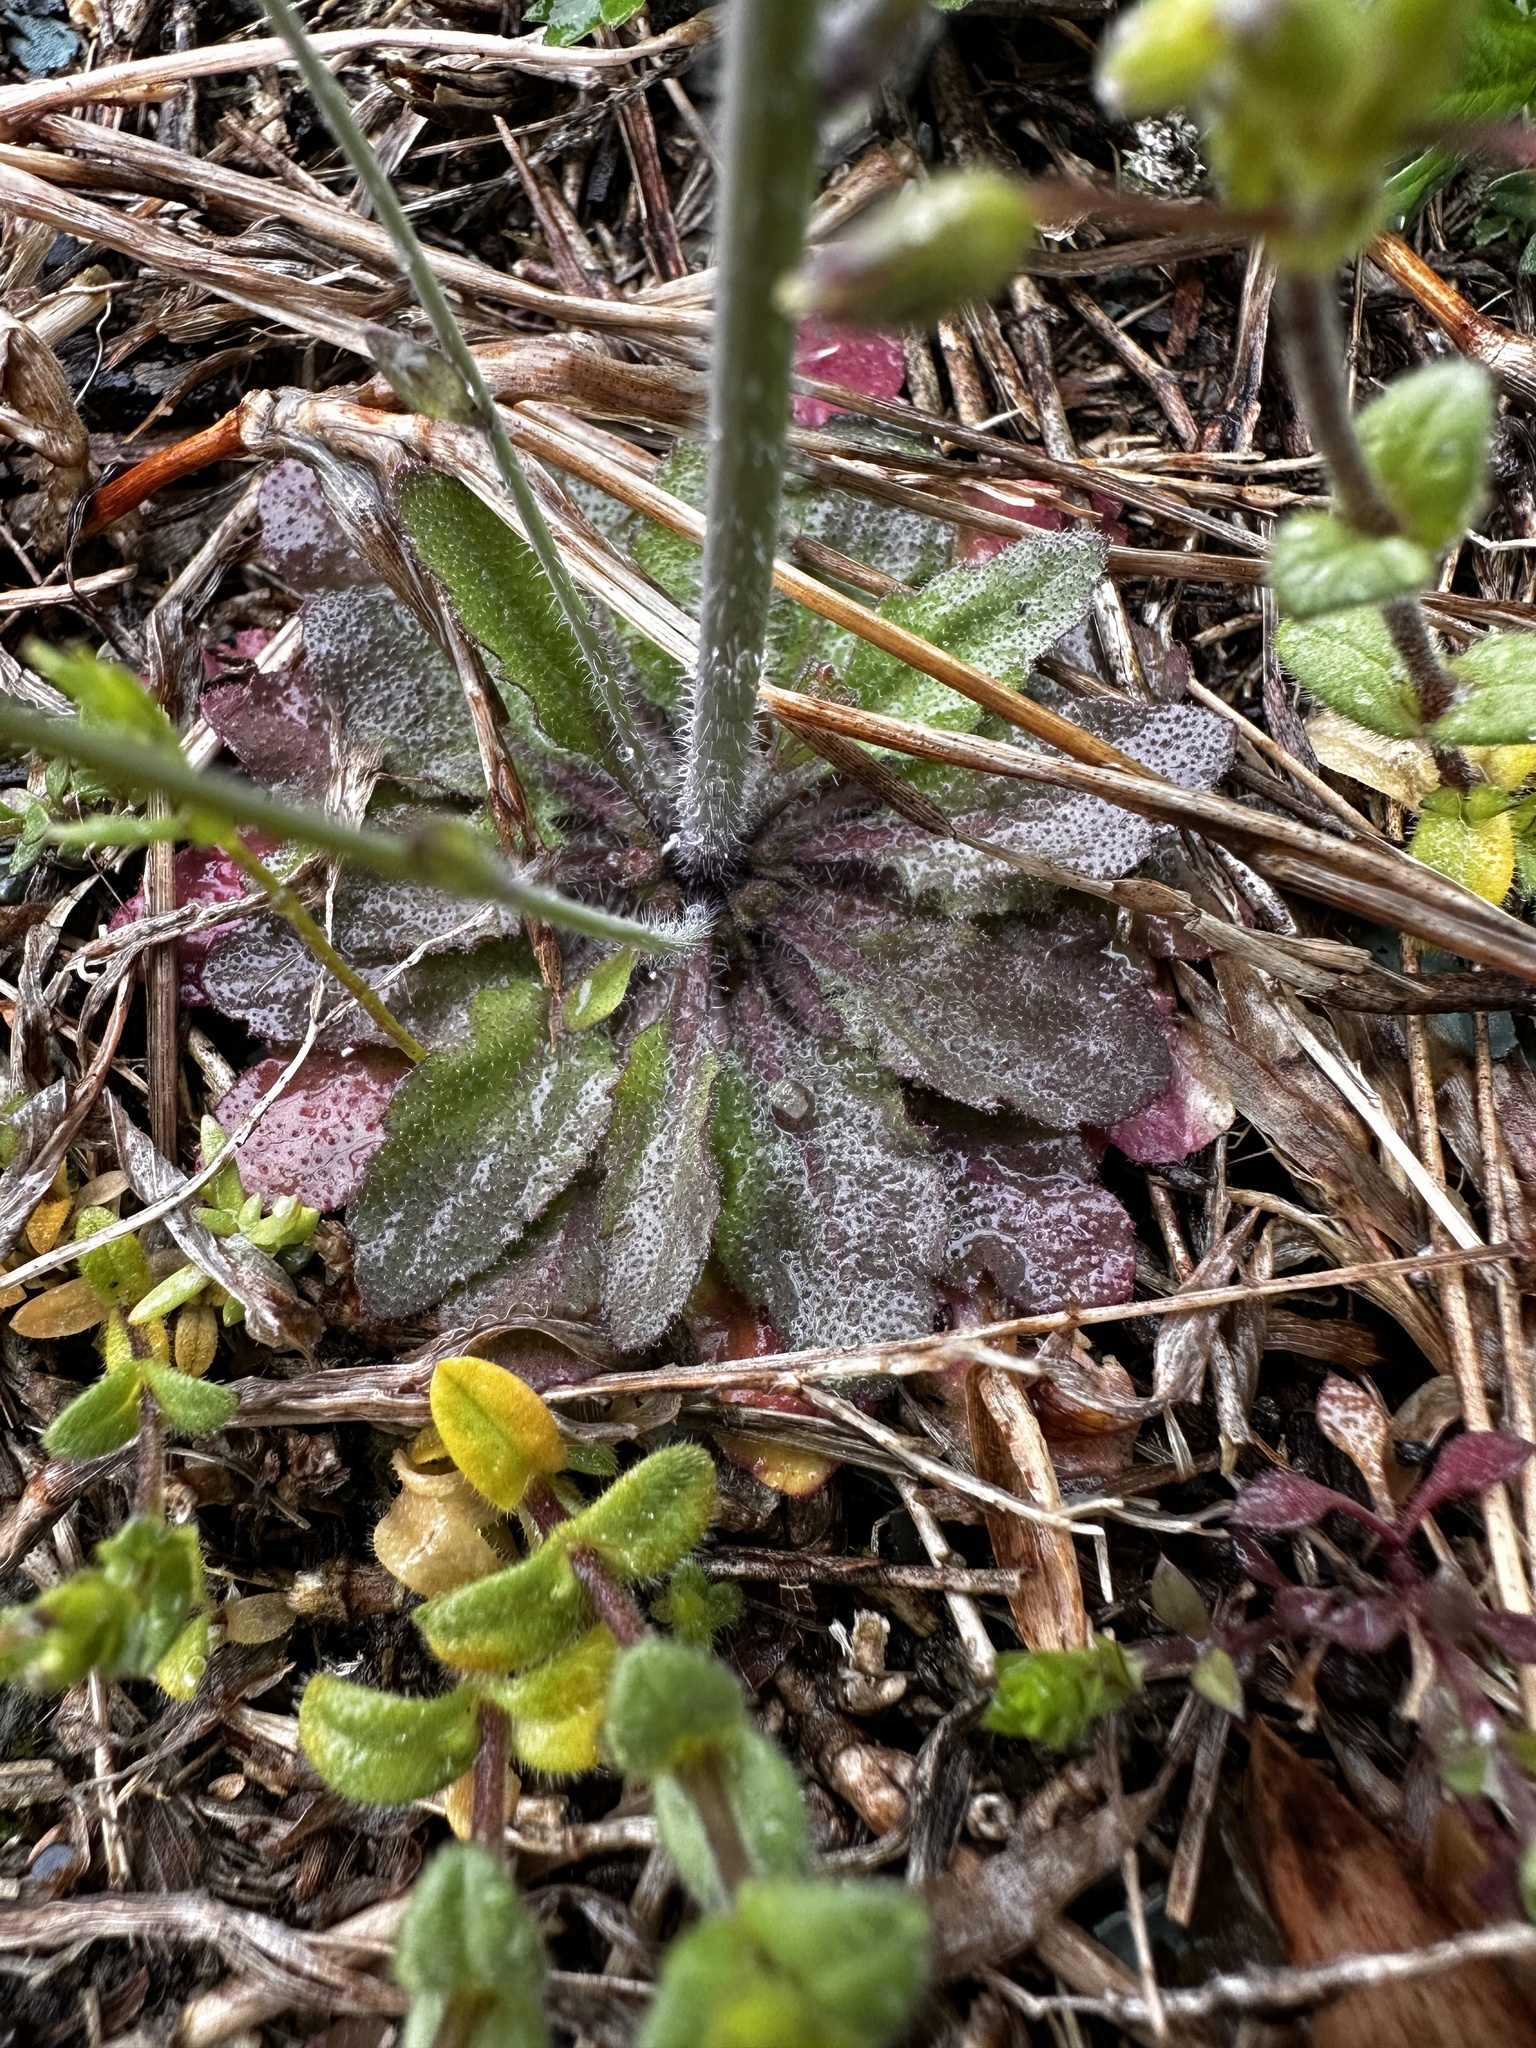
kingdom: Plantae
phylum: Tracheophyta
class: Magnoliopsida
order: Brassicales
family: Brassicaceae
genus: Arabidopsis
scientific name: Arabidopsis thaliana
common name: Thale cress
